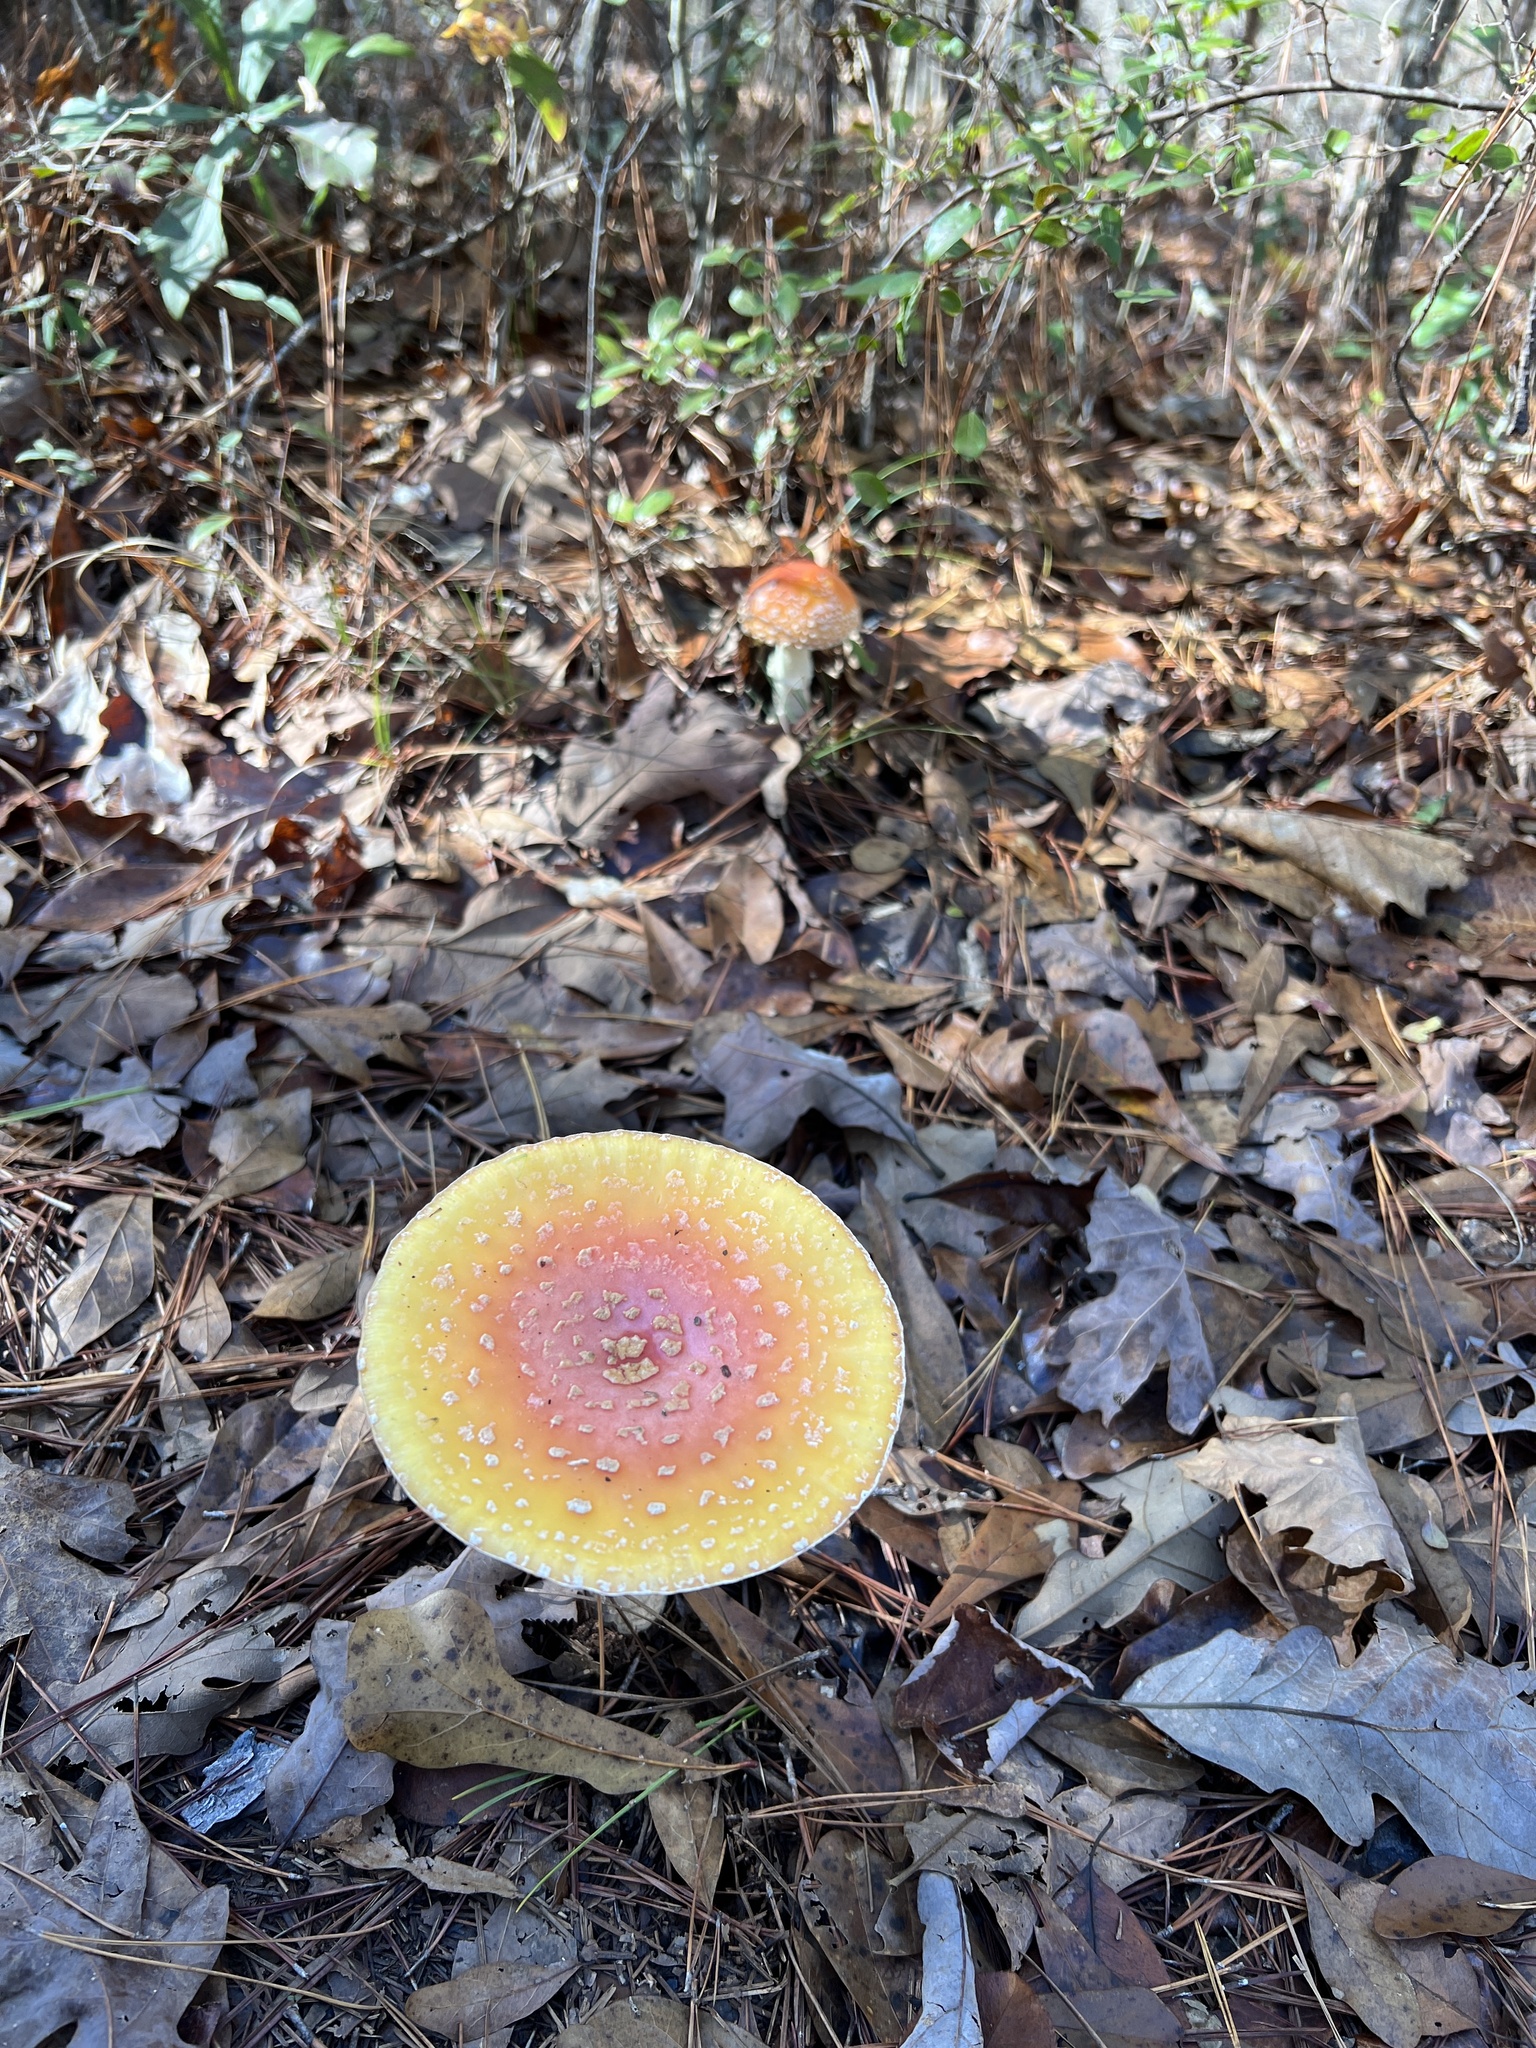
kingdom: Fungi
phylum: Basidiomycota
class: Agaricomycetes
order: Agaricales
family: Amanitaceae
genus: Amanita
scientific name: Amanita persicina
